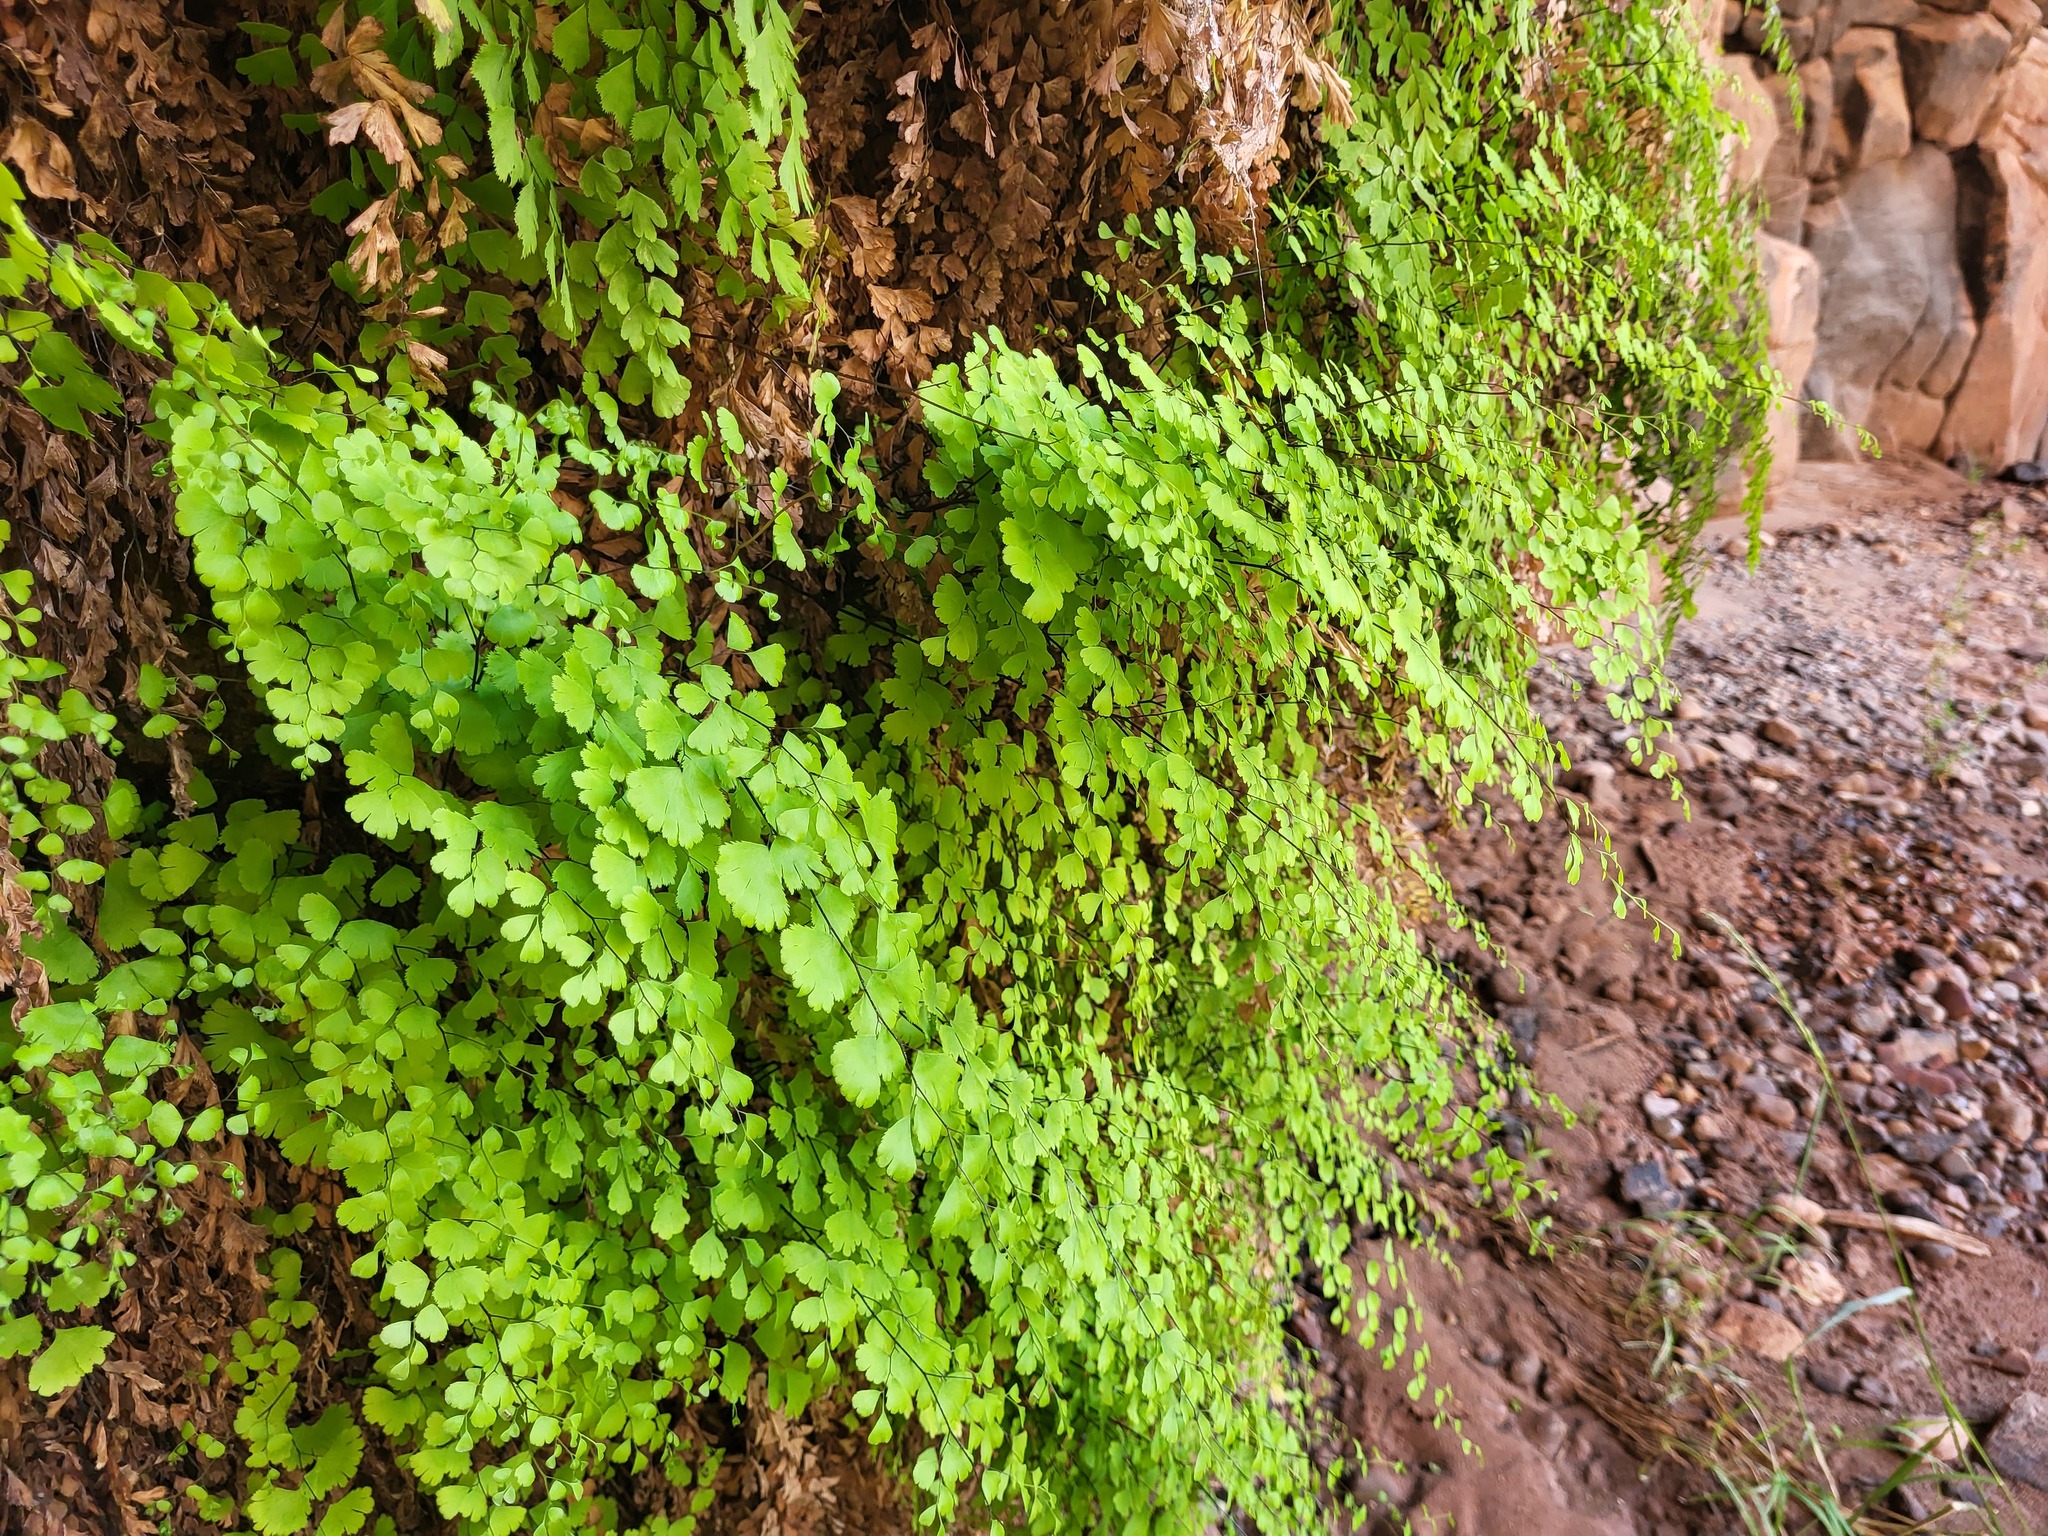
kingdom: Plantae
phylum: Tracheophyta
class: Polypodiopsida
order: Polypodiales
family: Pteridaceae
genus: Adiantum
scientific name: Adiantum capillus-veneris
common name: Maidenhair fern
